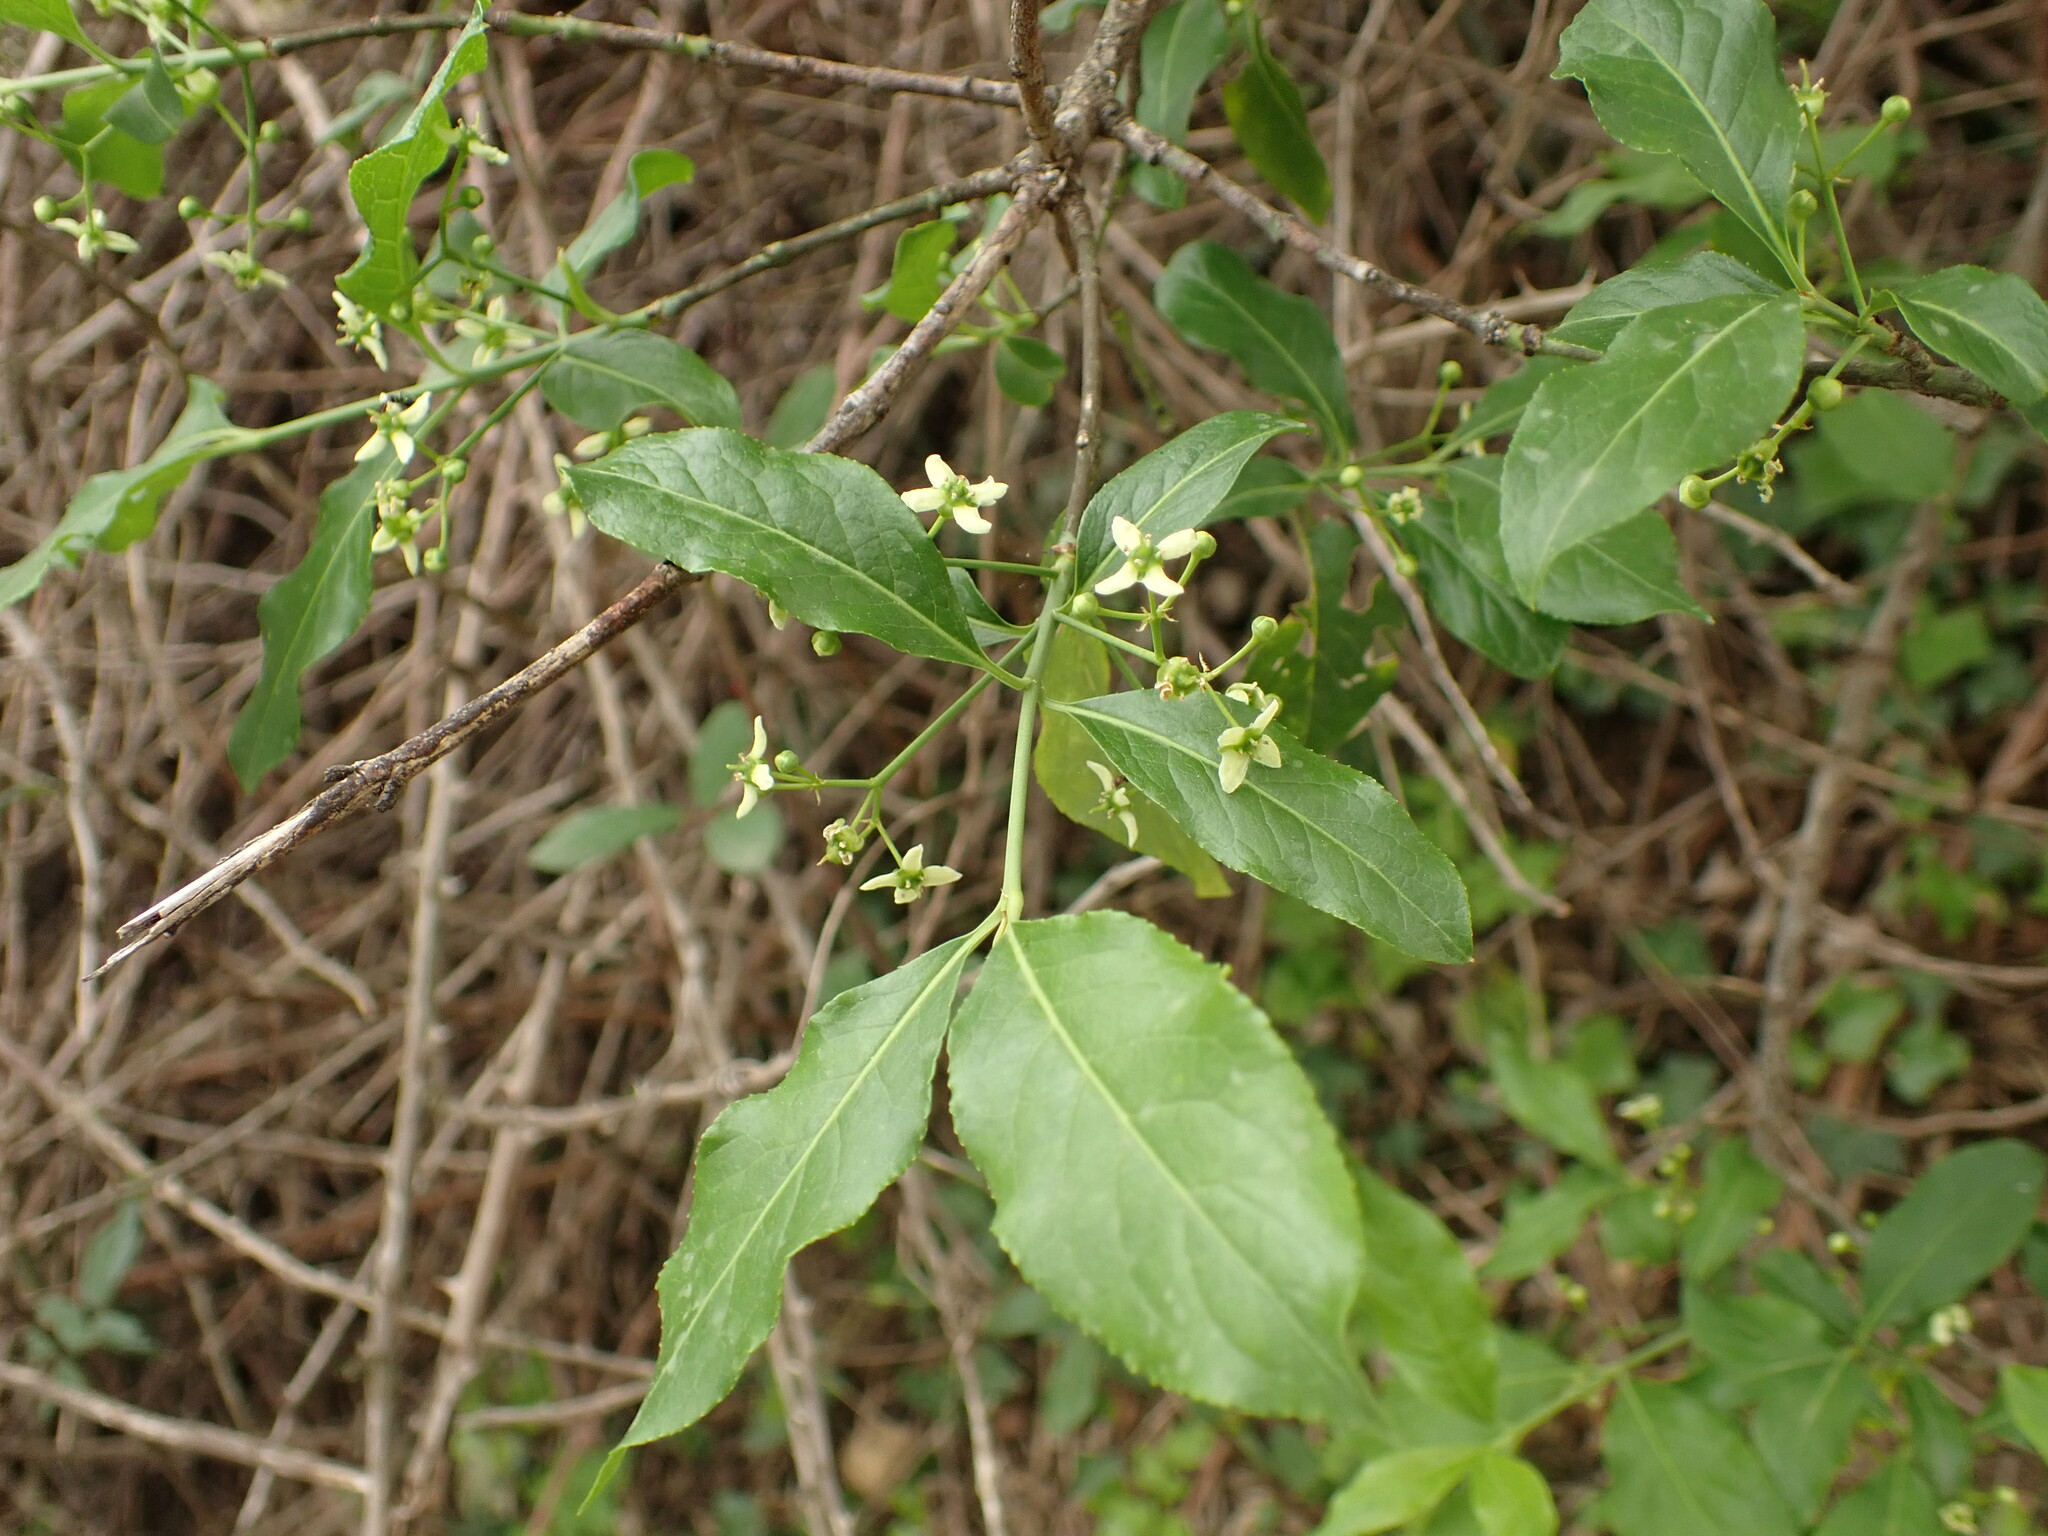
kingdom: Plantae
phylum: Tracheophyta
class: Magnoliopsida
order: Celastrales
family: Celastraceae
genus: Euonymus
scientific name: Euonymus europaeus
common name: Spindle
